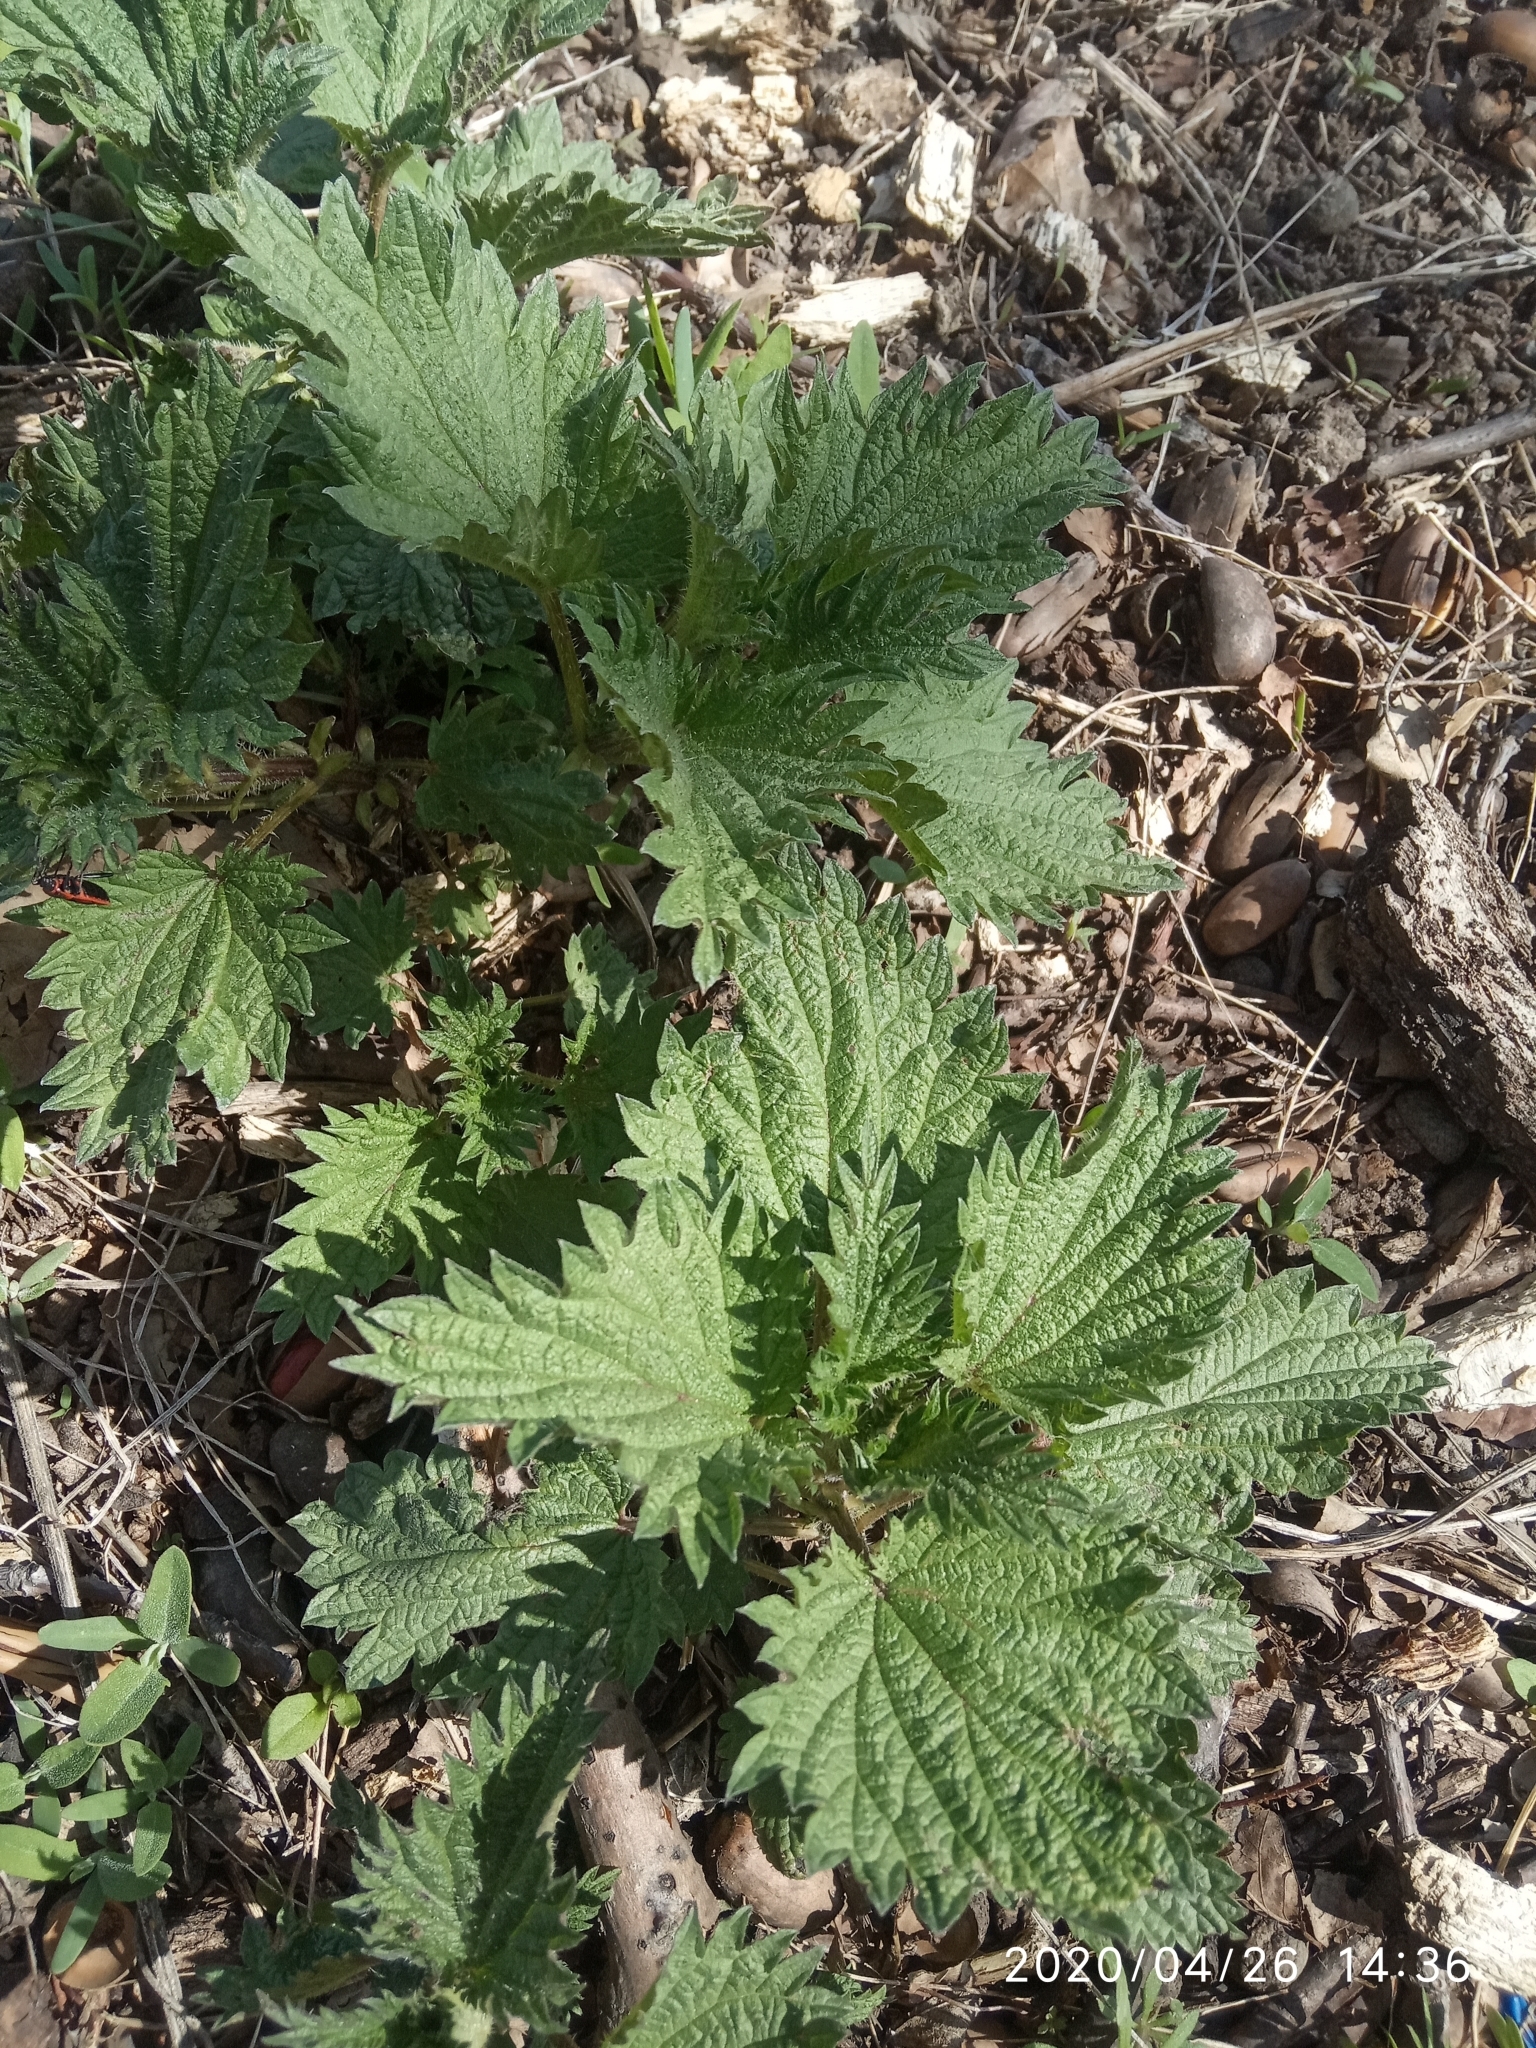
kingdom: Plantae
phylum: Tracheophyta
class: Magnoliopsida
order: Rosales
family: Urticaceae
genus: Urtica
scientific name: Urtica dioica
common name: Common nettle
